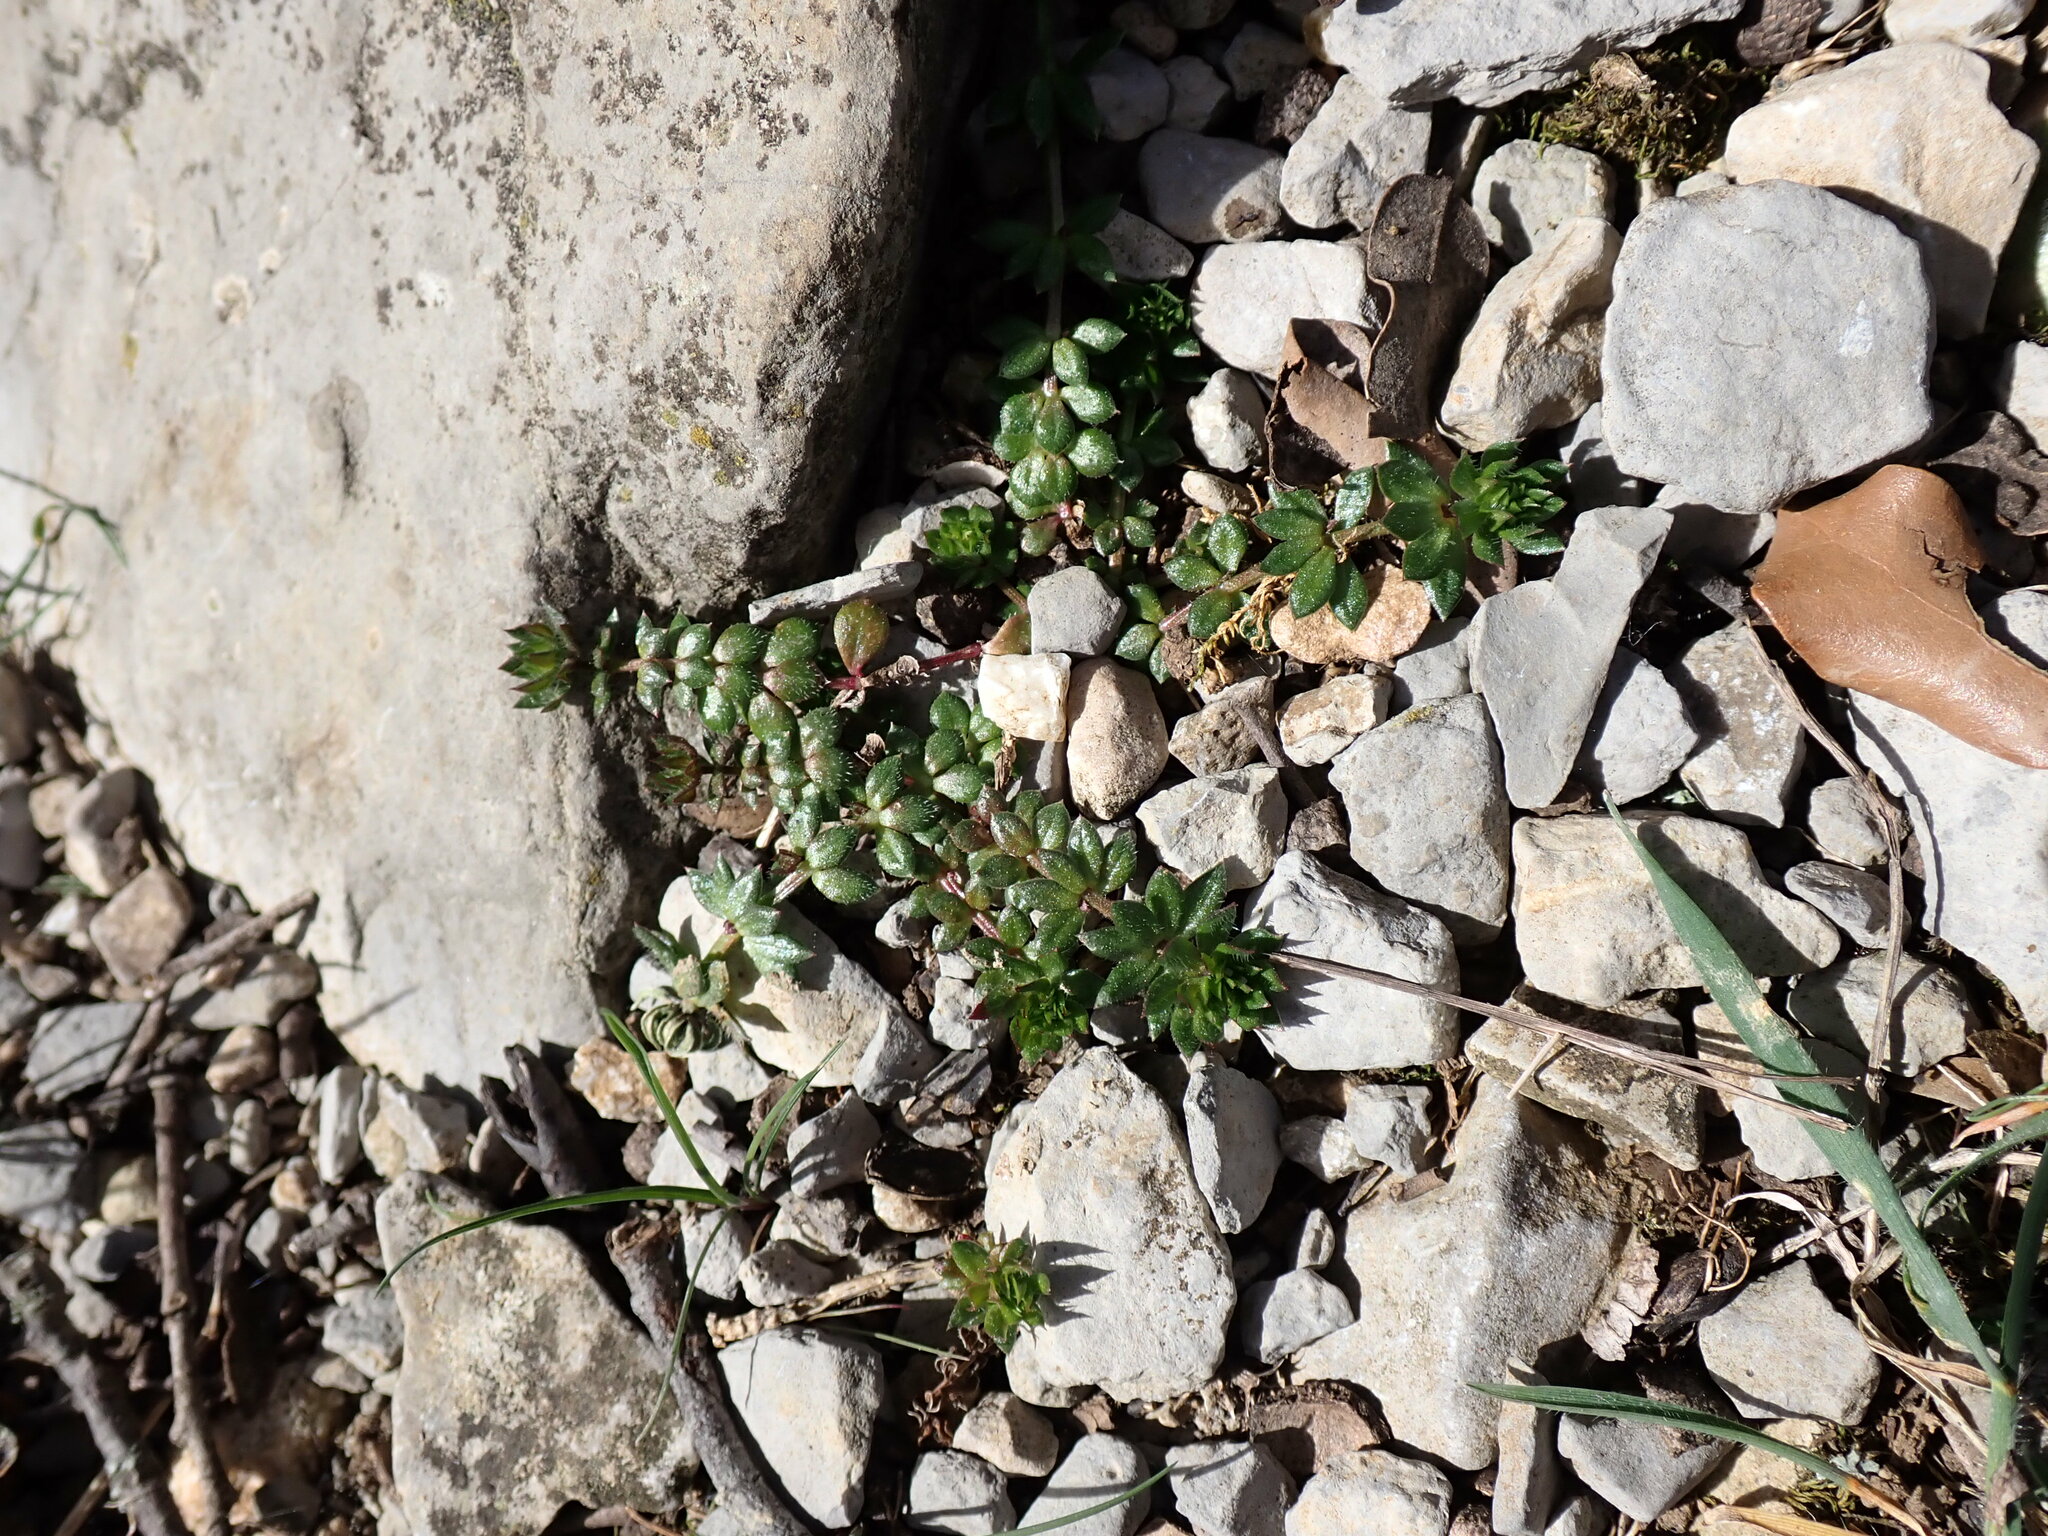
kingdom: Plantae
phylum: Tracheophyta
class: Magnoliopsida
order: Gentianales
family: Rubiaceae
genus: Valantia
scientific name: Valantia muralis
